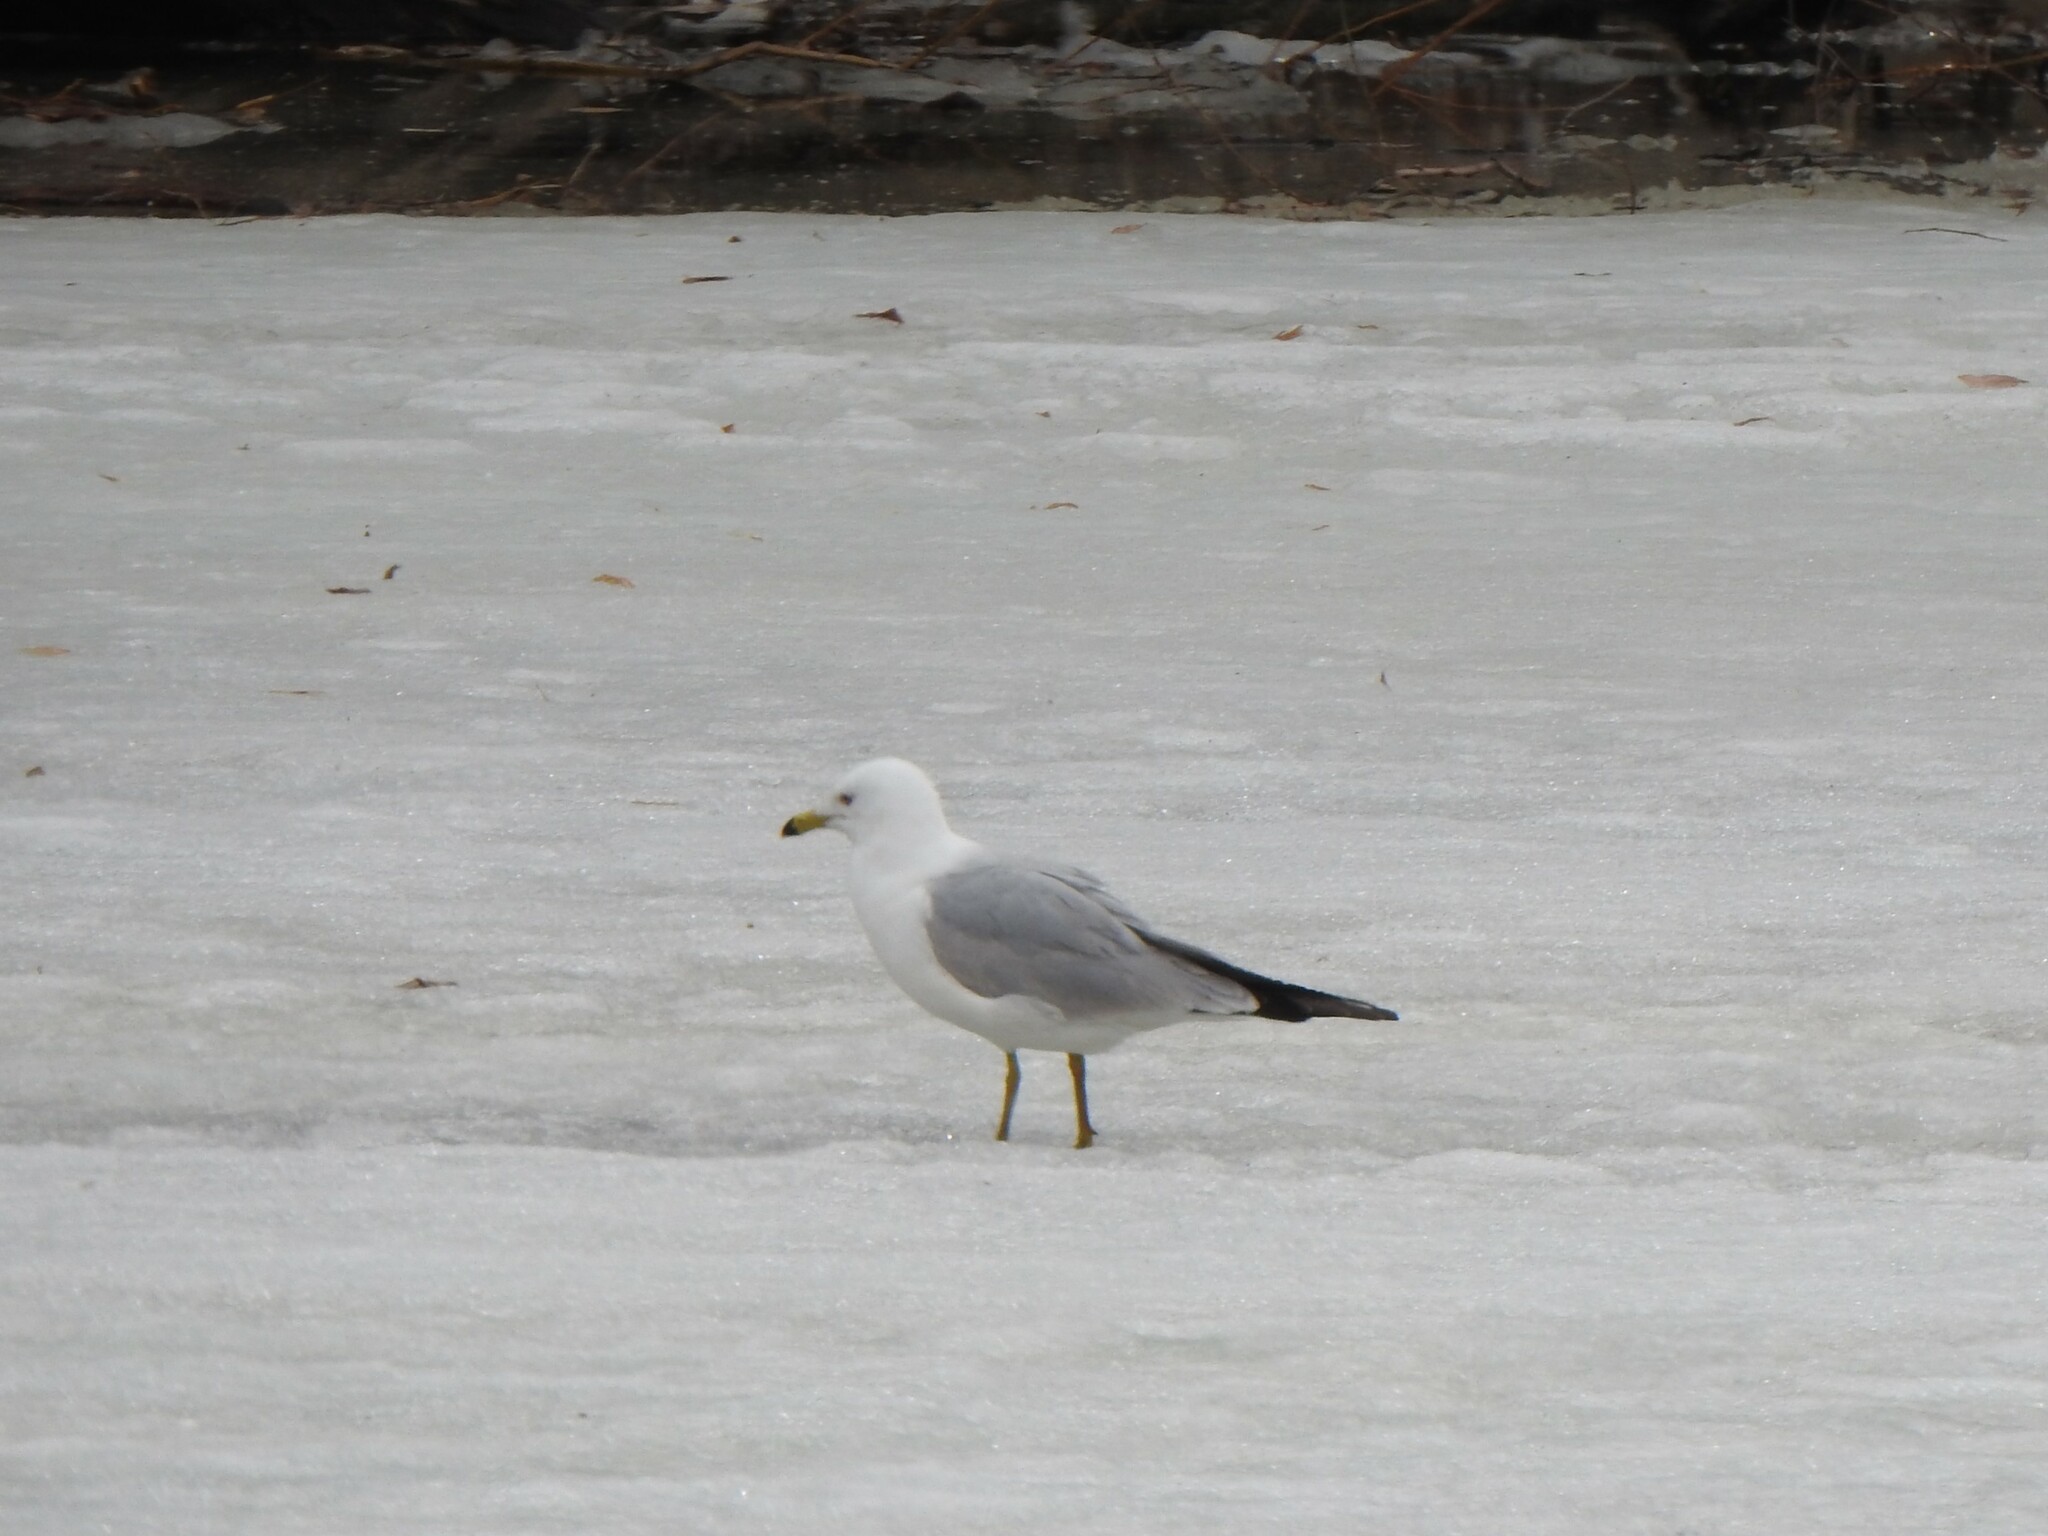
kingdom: Animalia
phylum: Chordata
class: Aves
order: Charadriiformes
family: Laridae
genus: Larus
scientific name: Larus delawarensis
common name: Ring-billed gull
